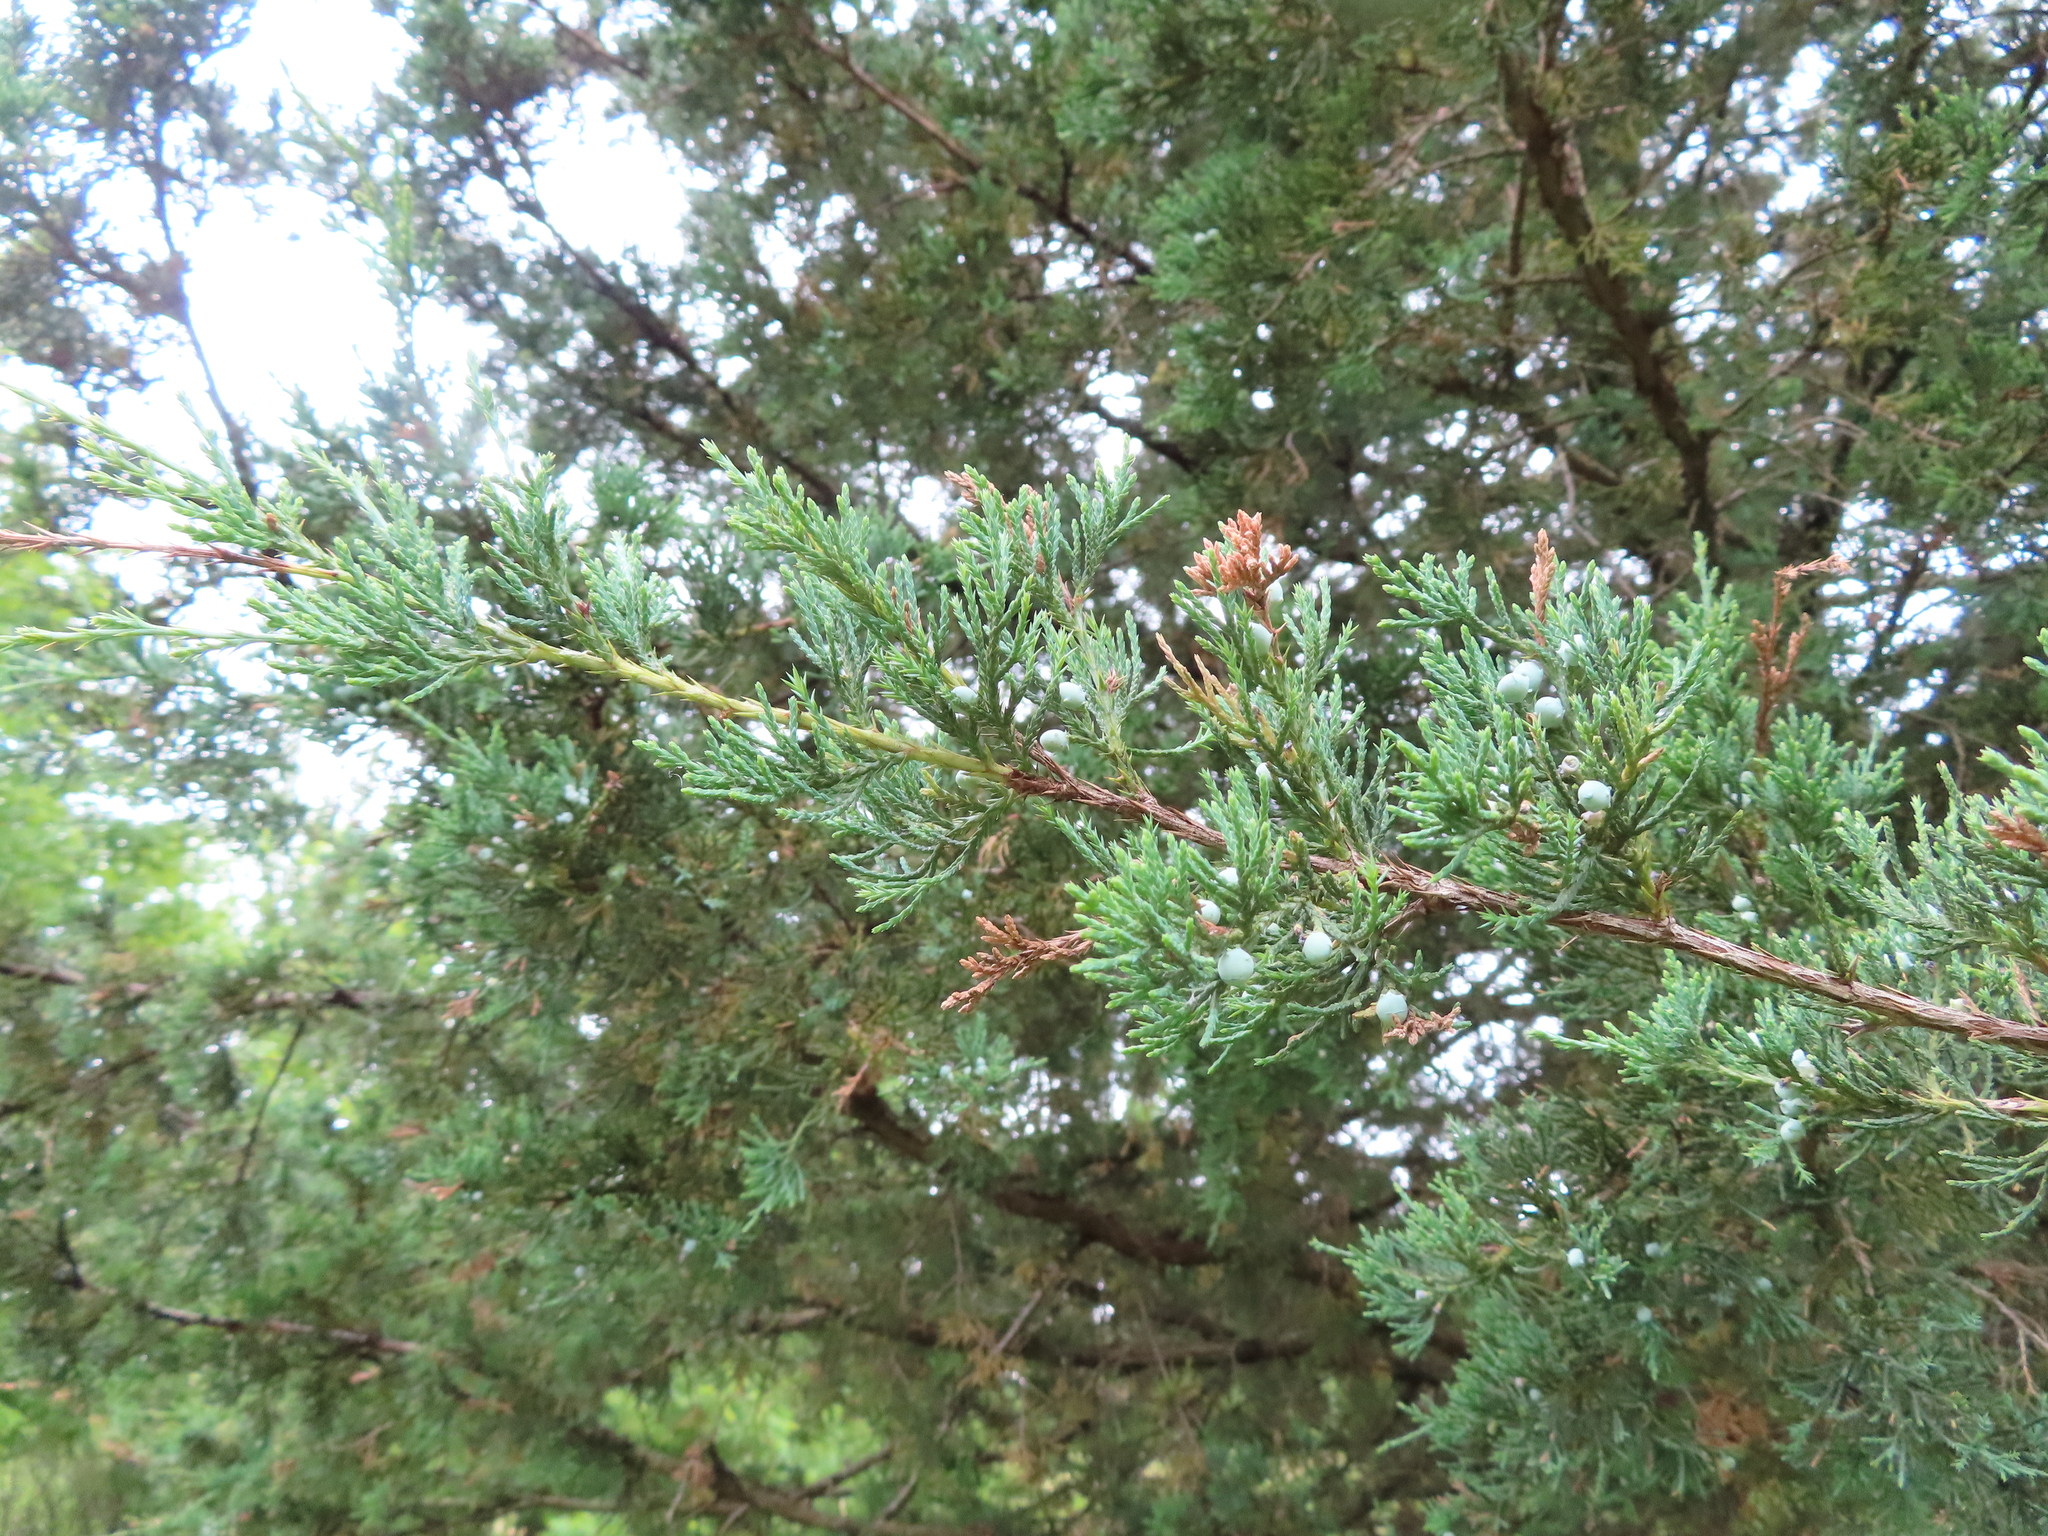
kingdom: Plantae
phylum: Tracheophyta
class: Pinopsida
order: Pinales
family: Cupressaceae
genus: Juniperus
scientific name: Juniperus virginiana
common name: Red juniper
